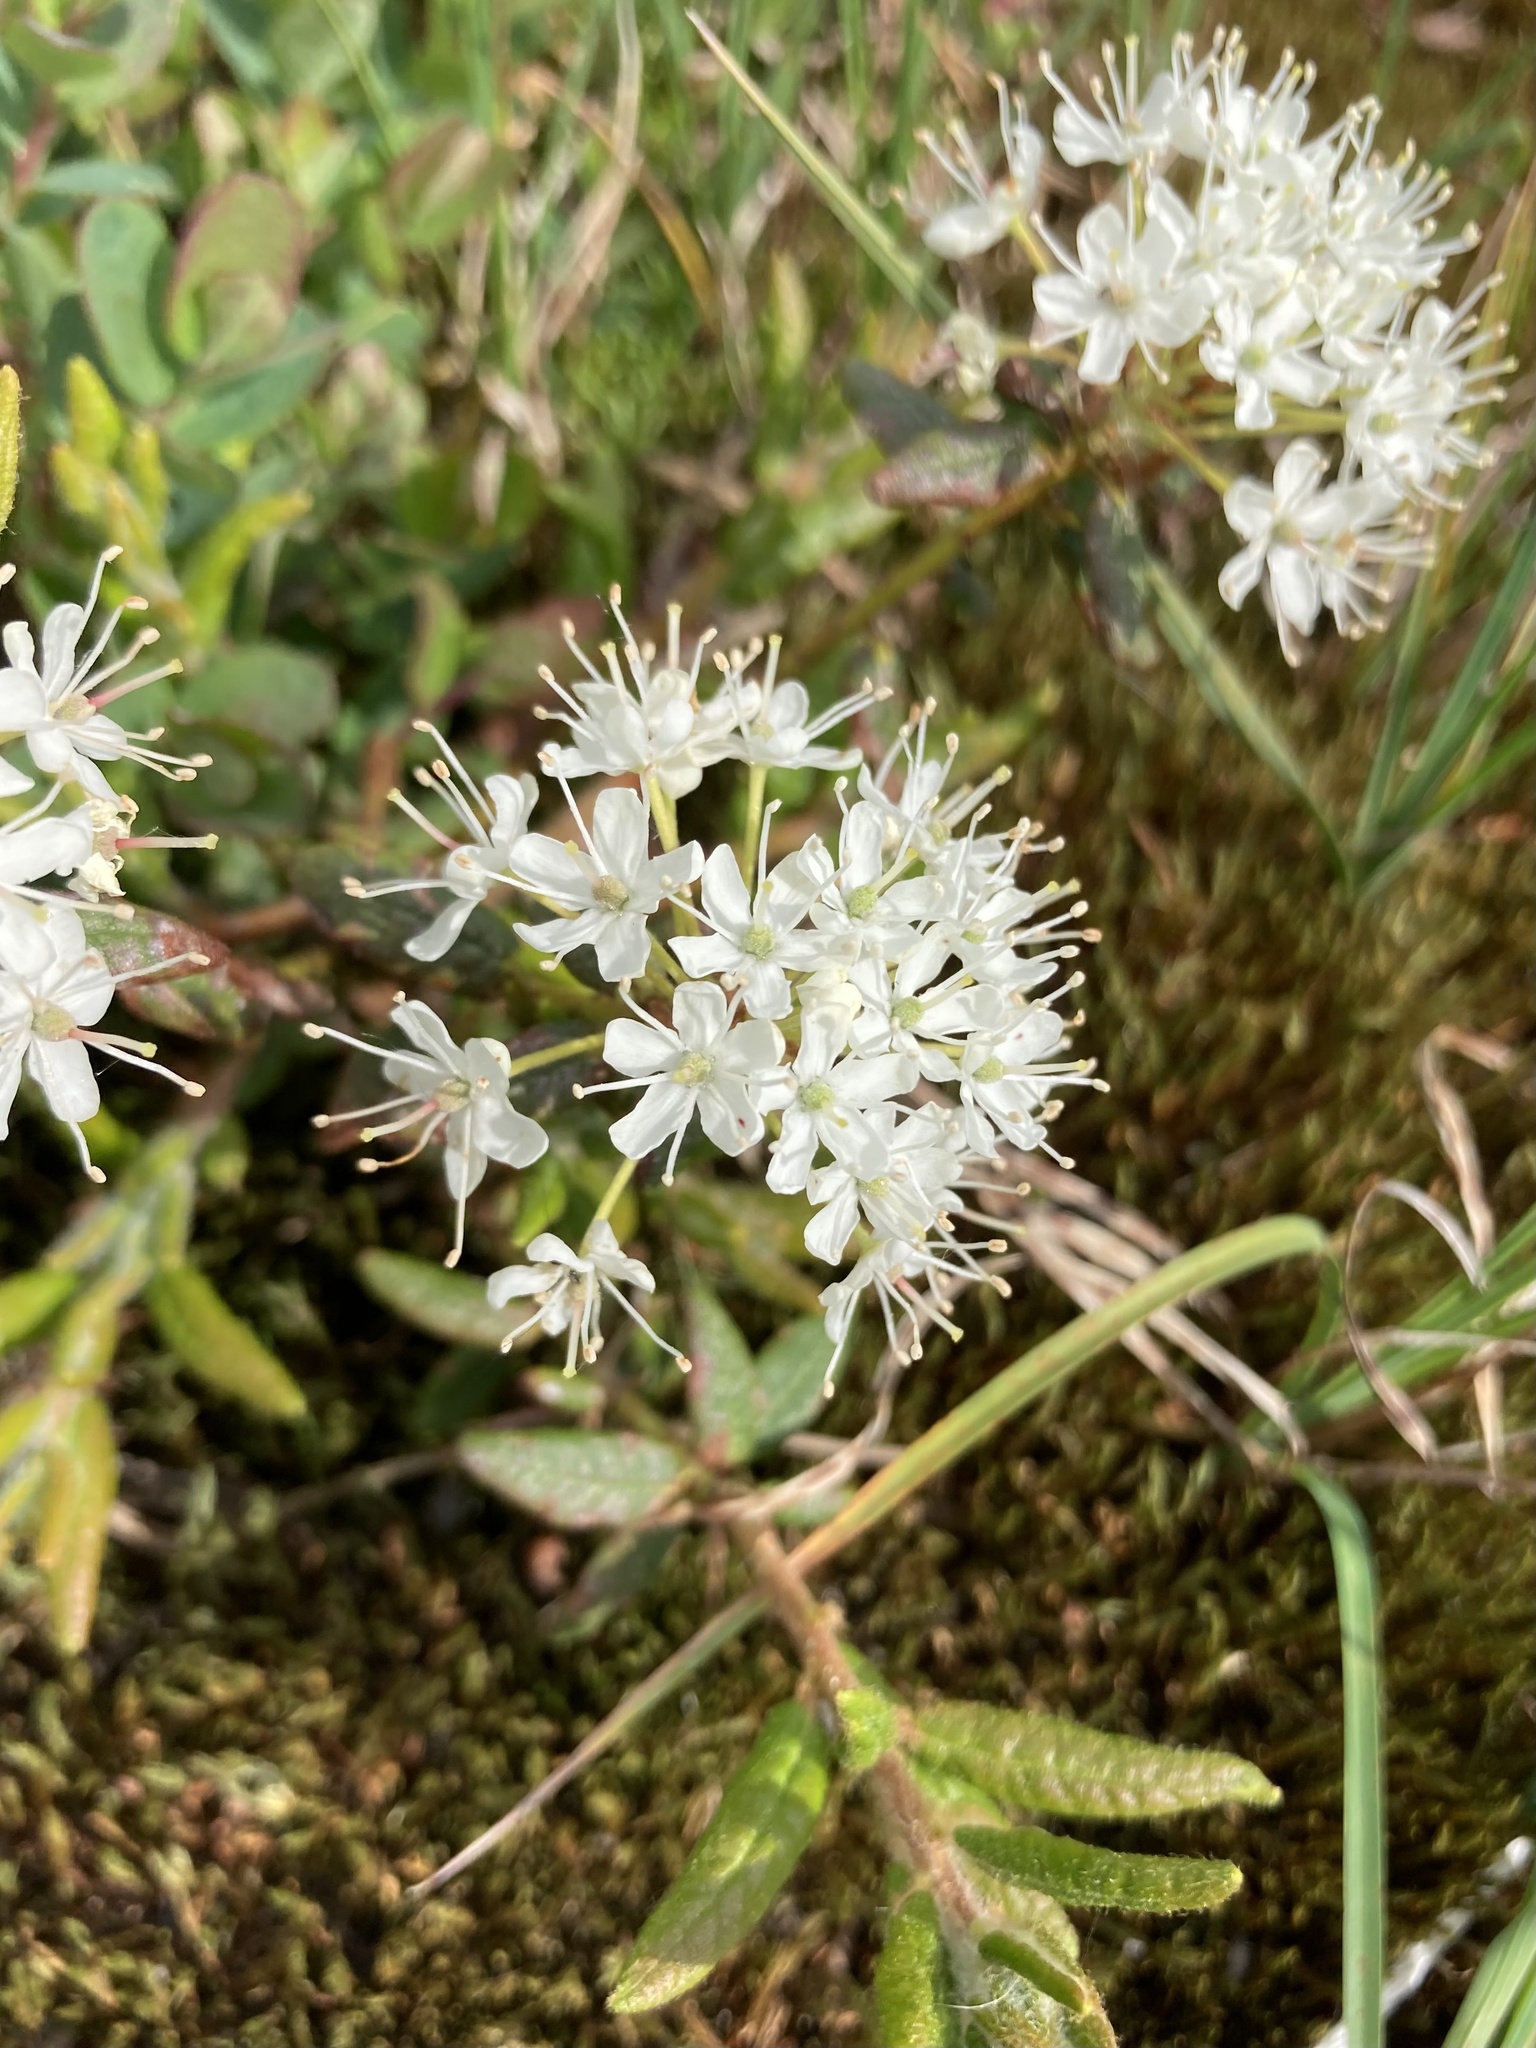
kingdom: Plantae
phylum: Tracheophyta
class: Magnoliopsida
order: Ericales
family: Ericaceae
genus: Rhododendron
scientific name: Rhododendron groenlandicum
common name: Bog labrador tea
